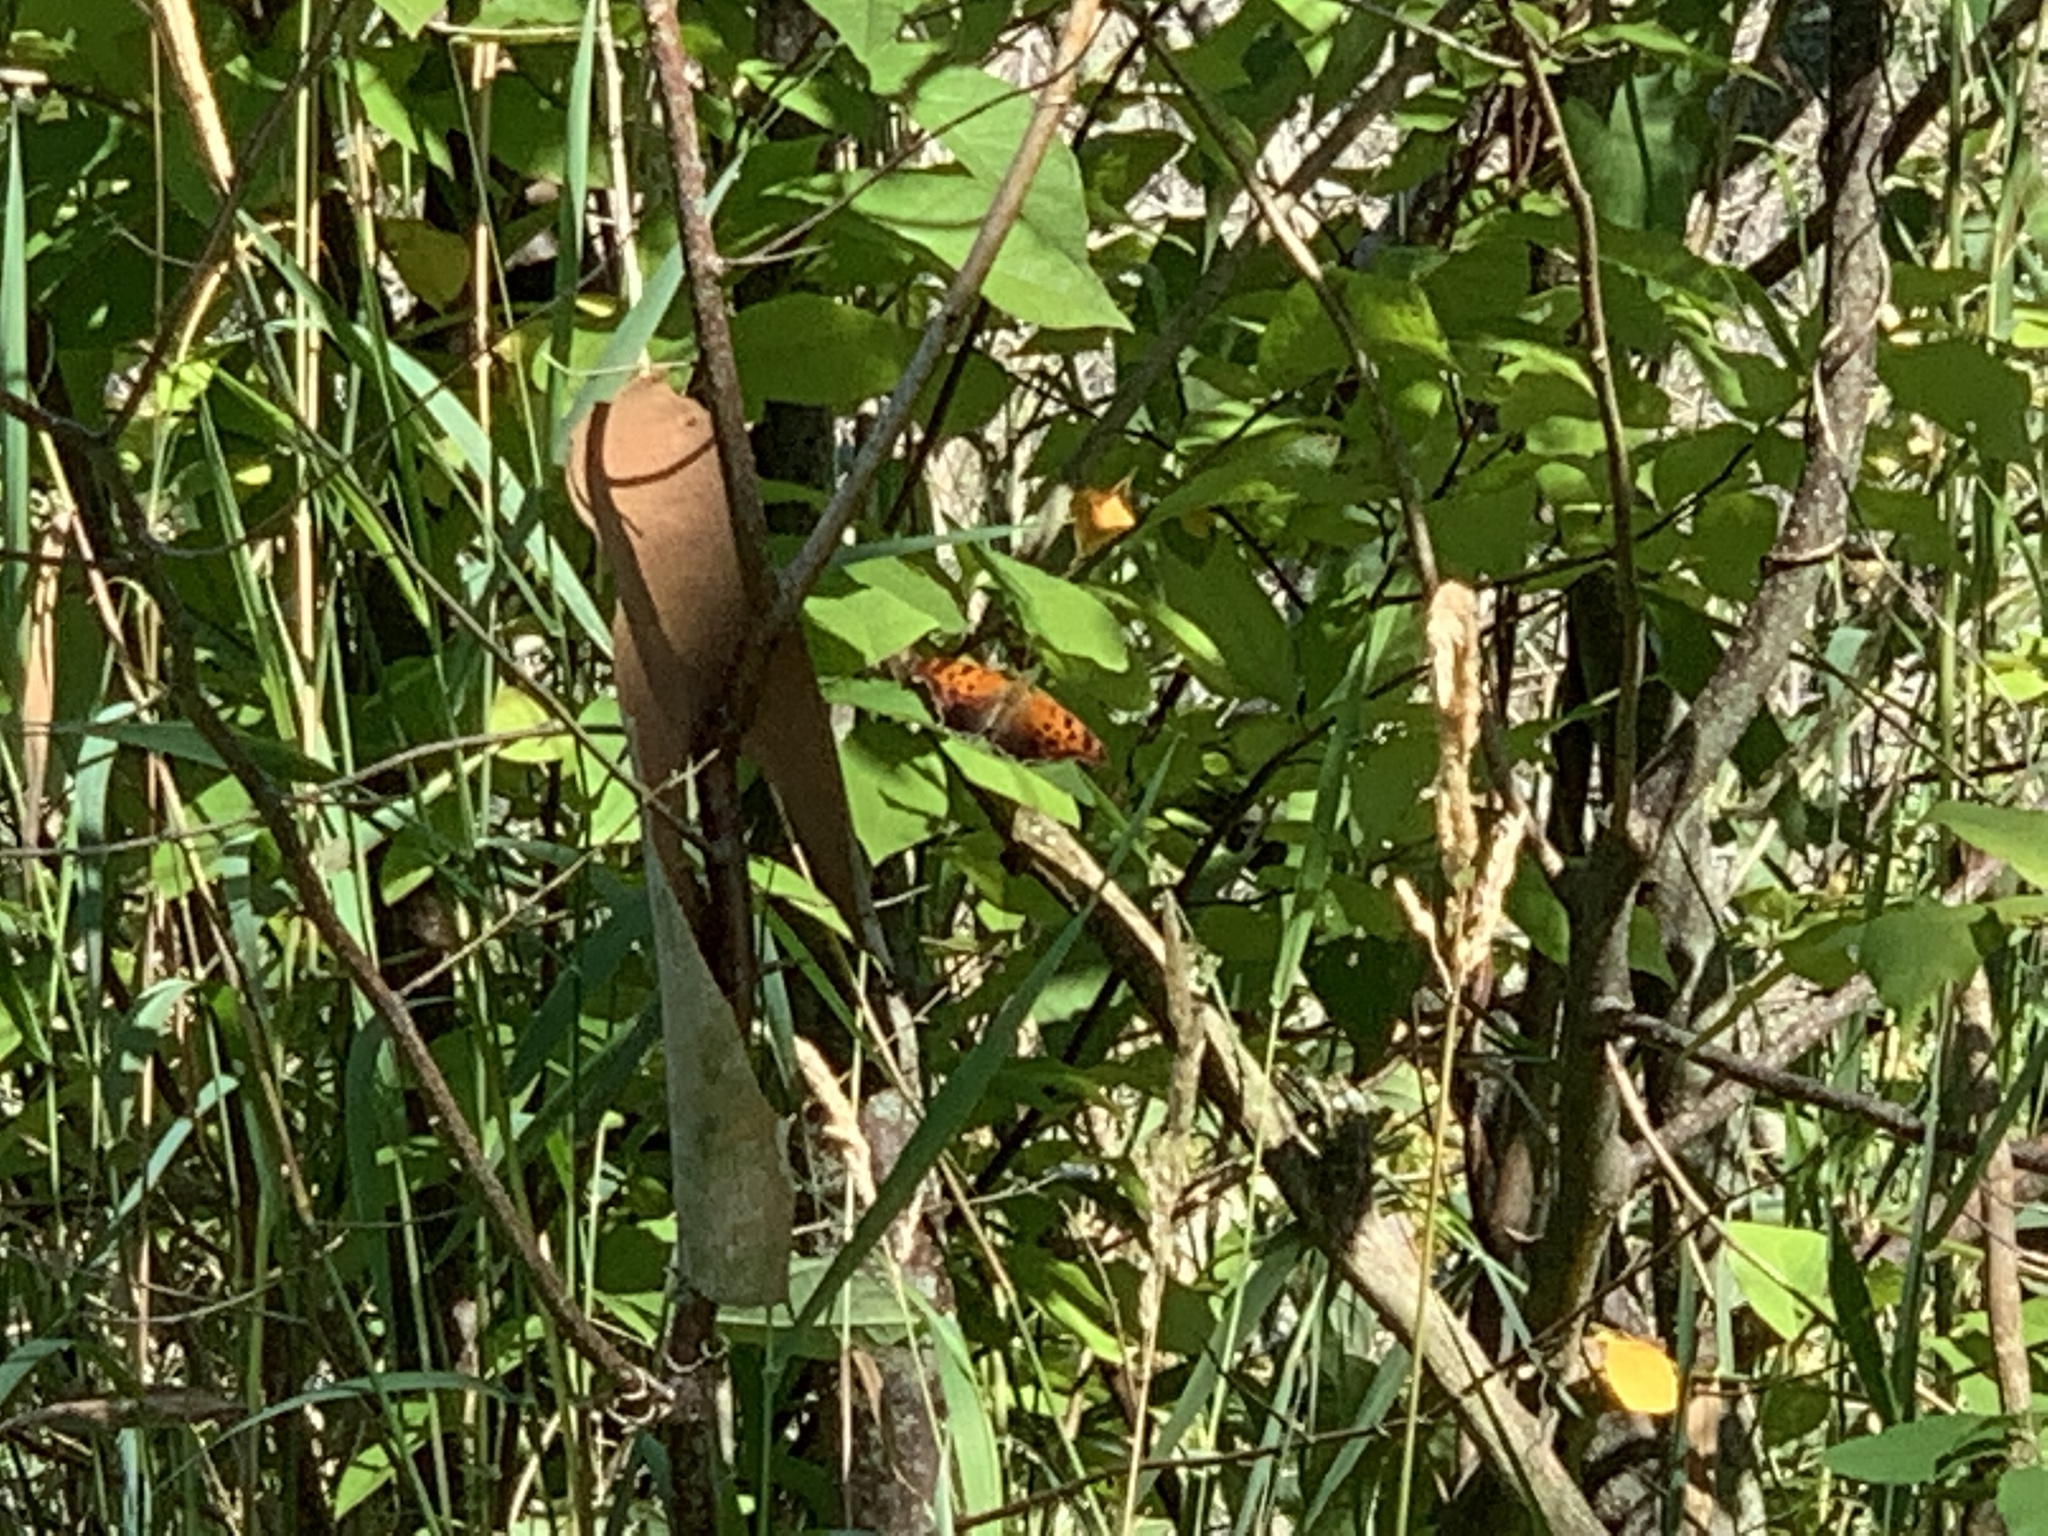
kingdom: Animalia
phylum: Arthropoda
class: Insecta
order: Lepidoptera
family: Nymphalidae
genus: Polygonia
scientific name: Polygonia comma
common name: Eastern comma
